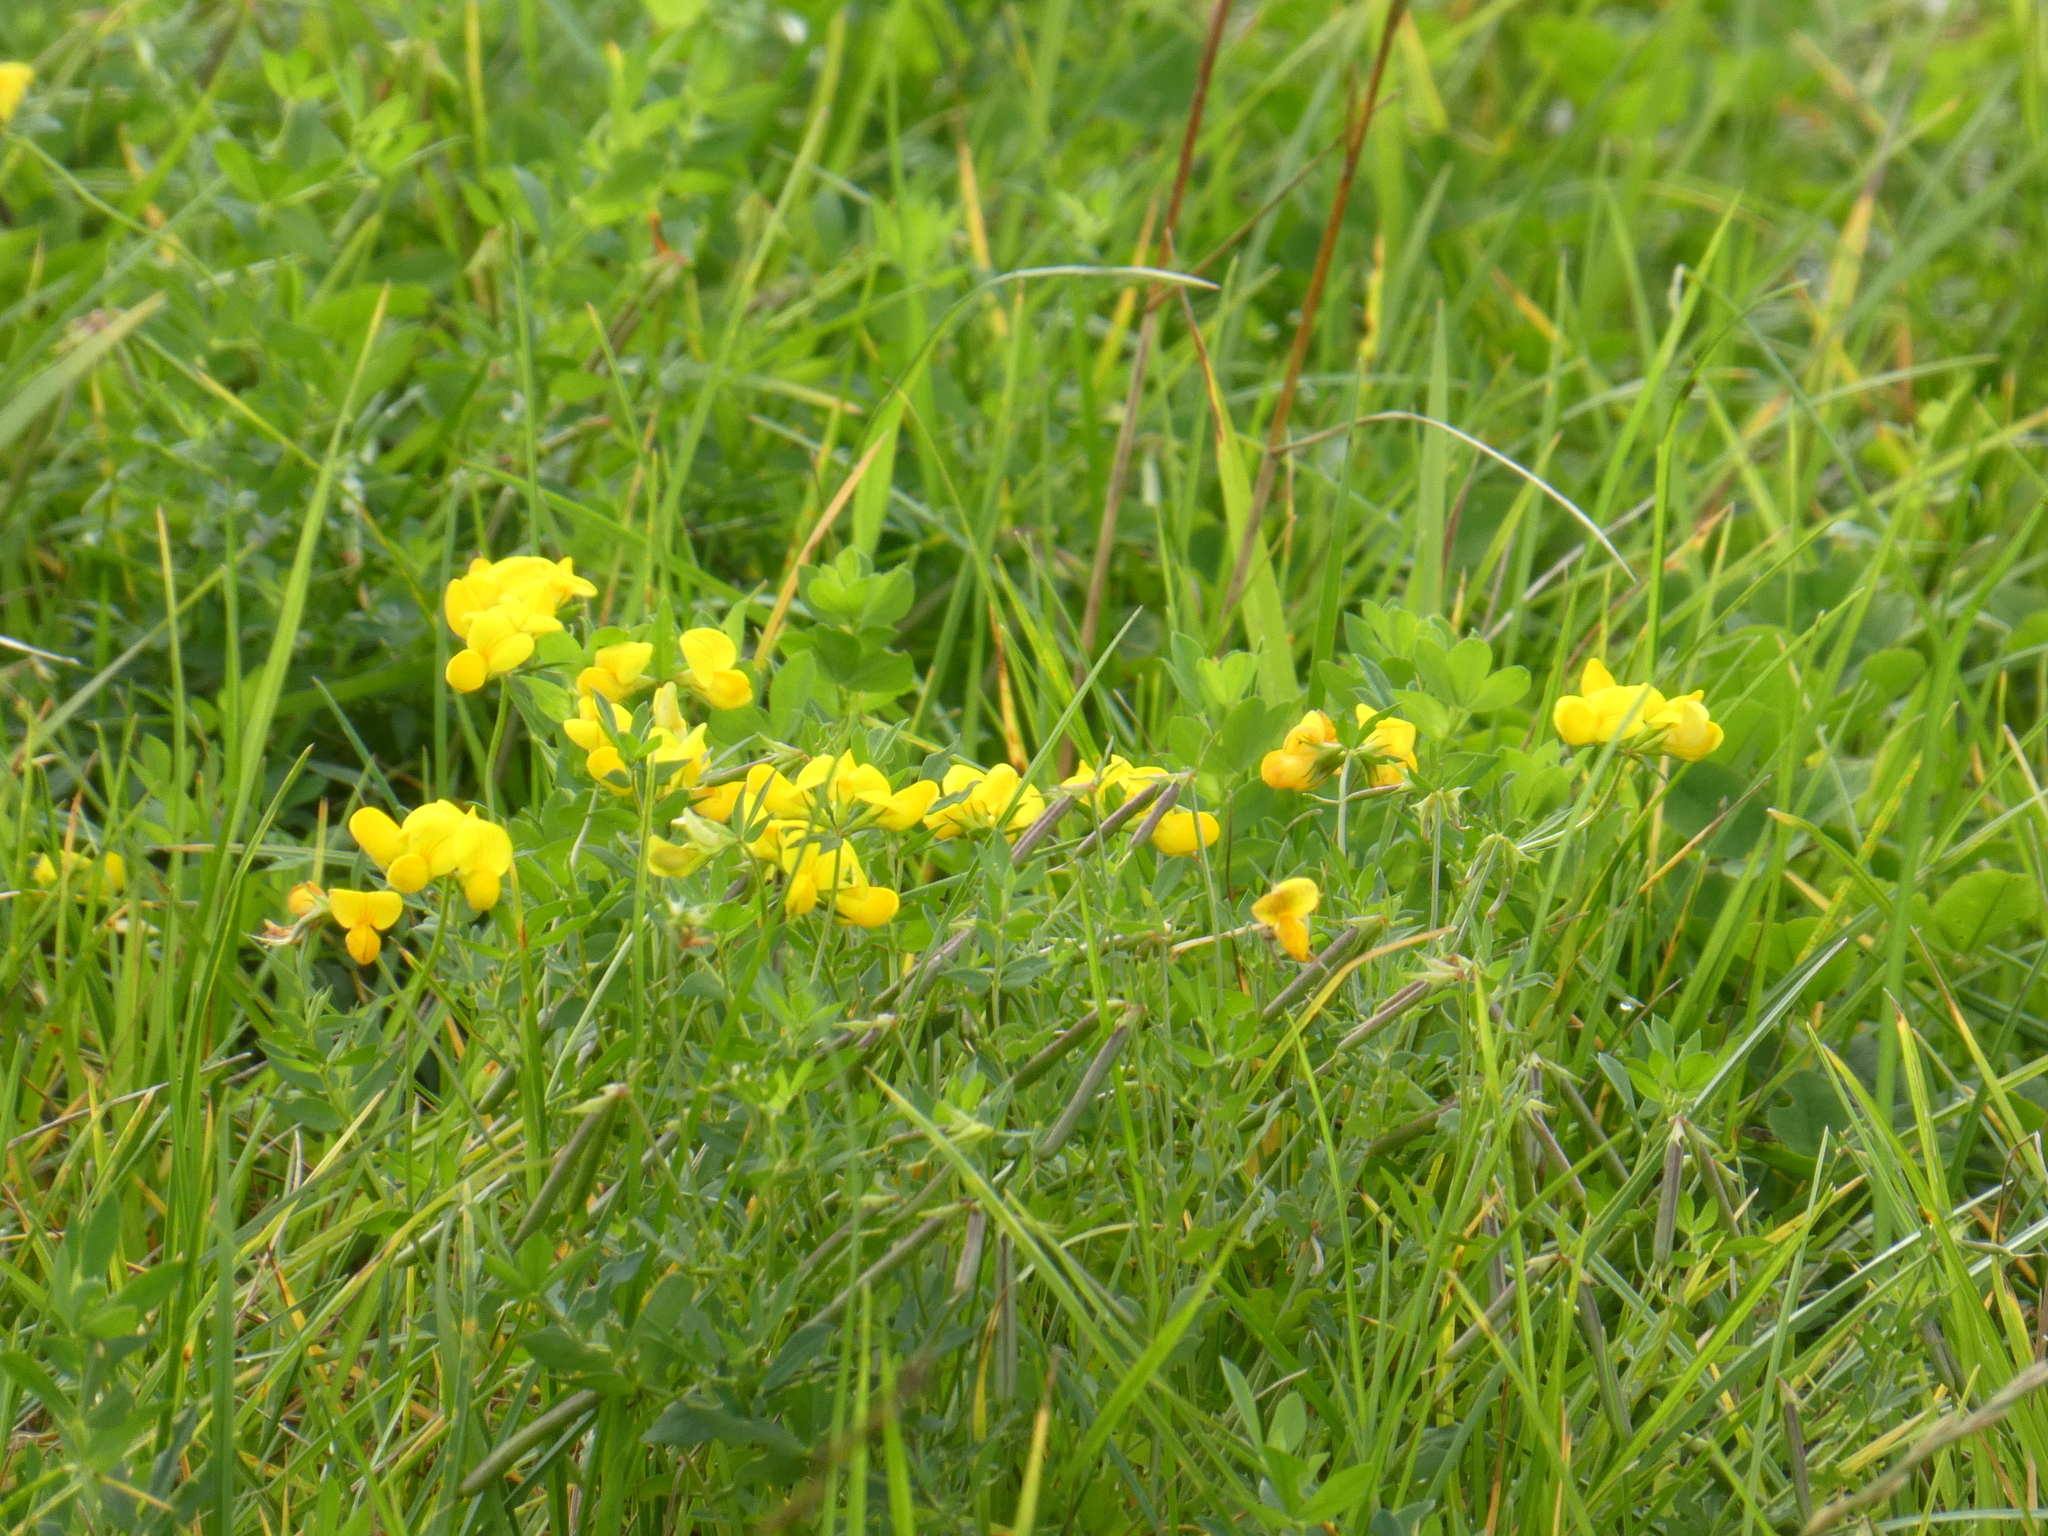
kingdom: Plantae
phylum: Tracheophyta
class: Magnoliopsida
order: Fabales
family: Fabaceae
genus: Lotus
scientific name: Lotus corniculatus
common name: Common bird's-foot-trefoil
